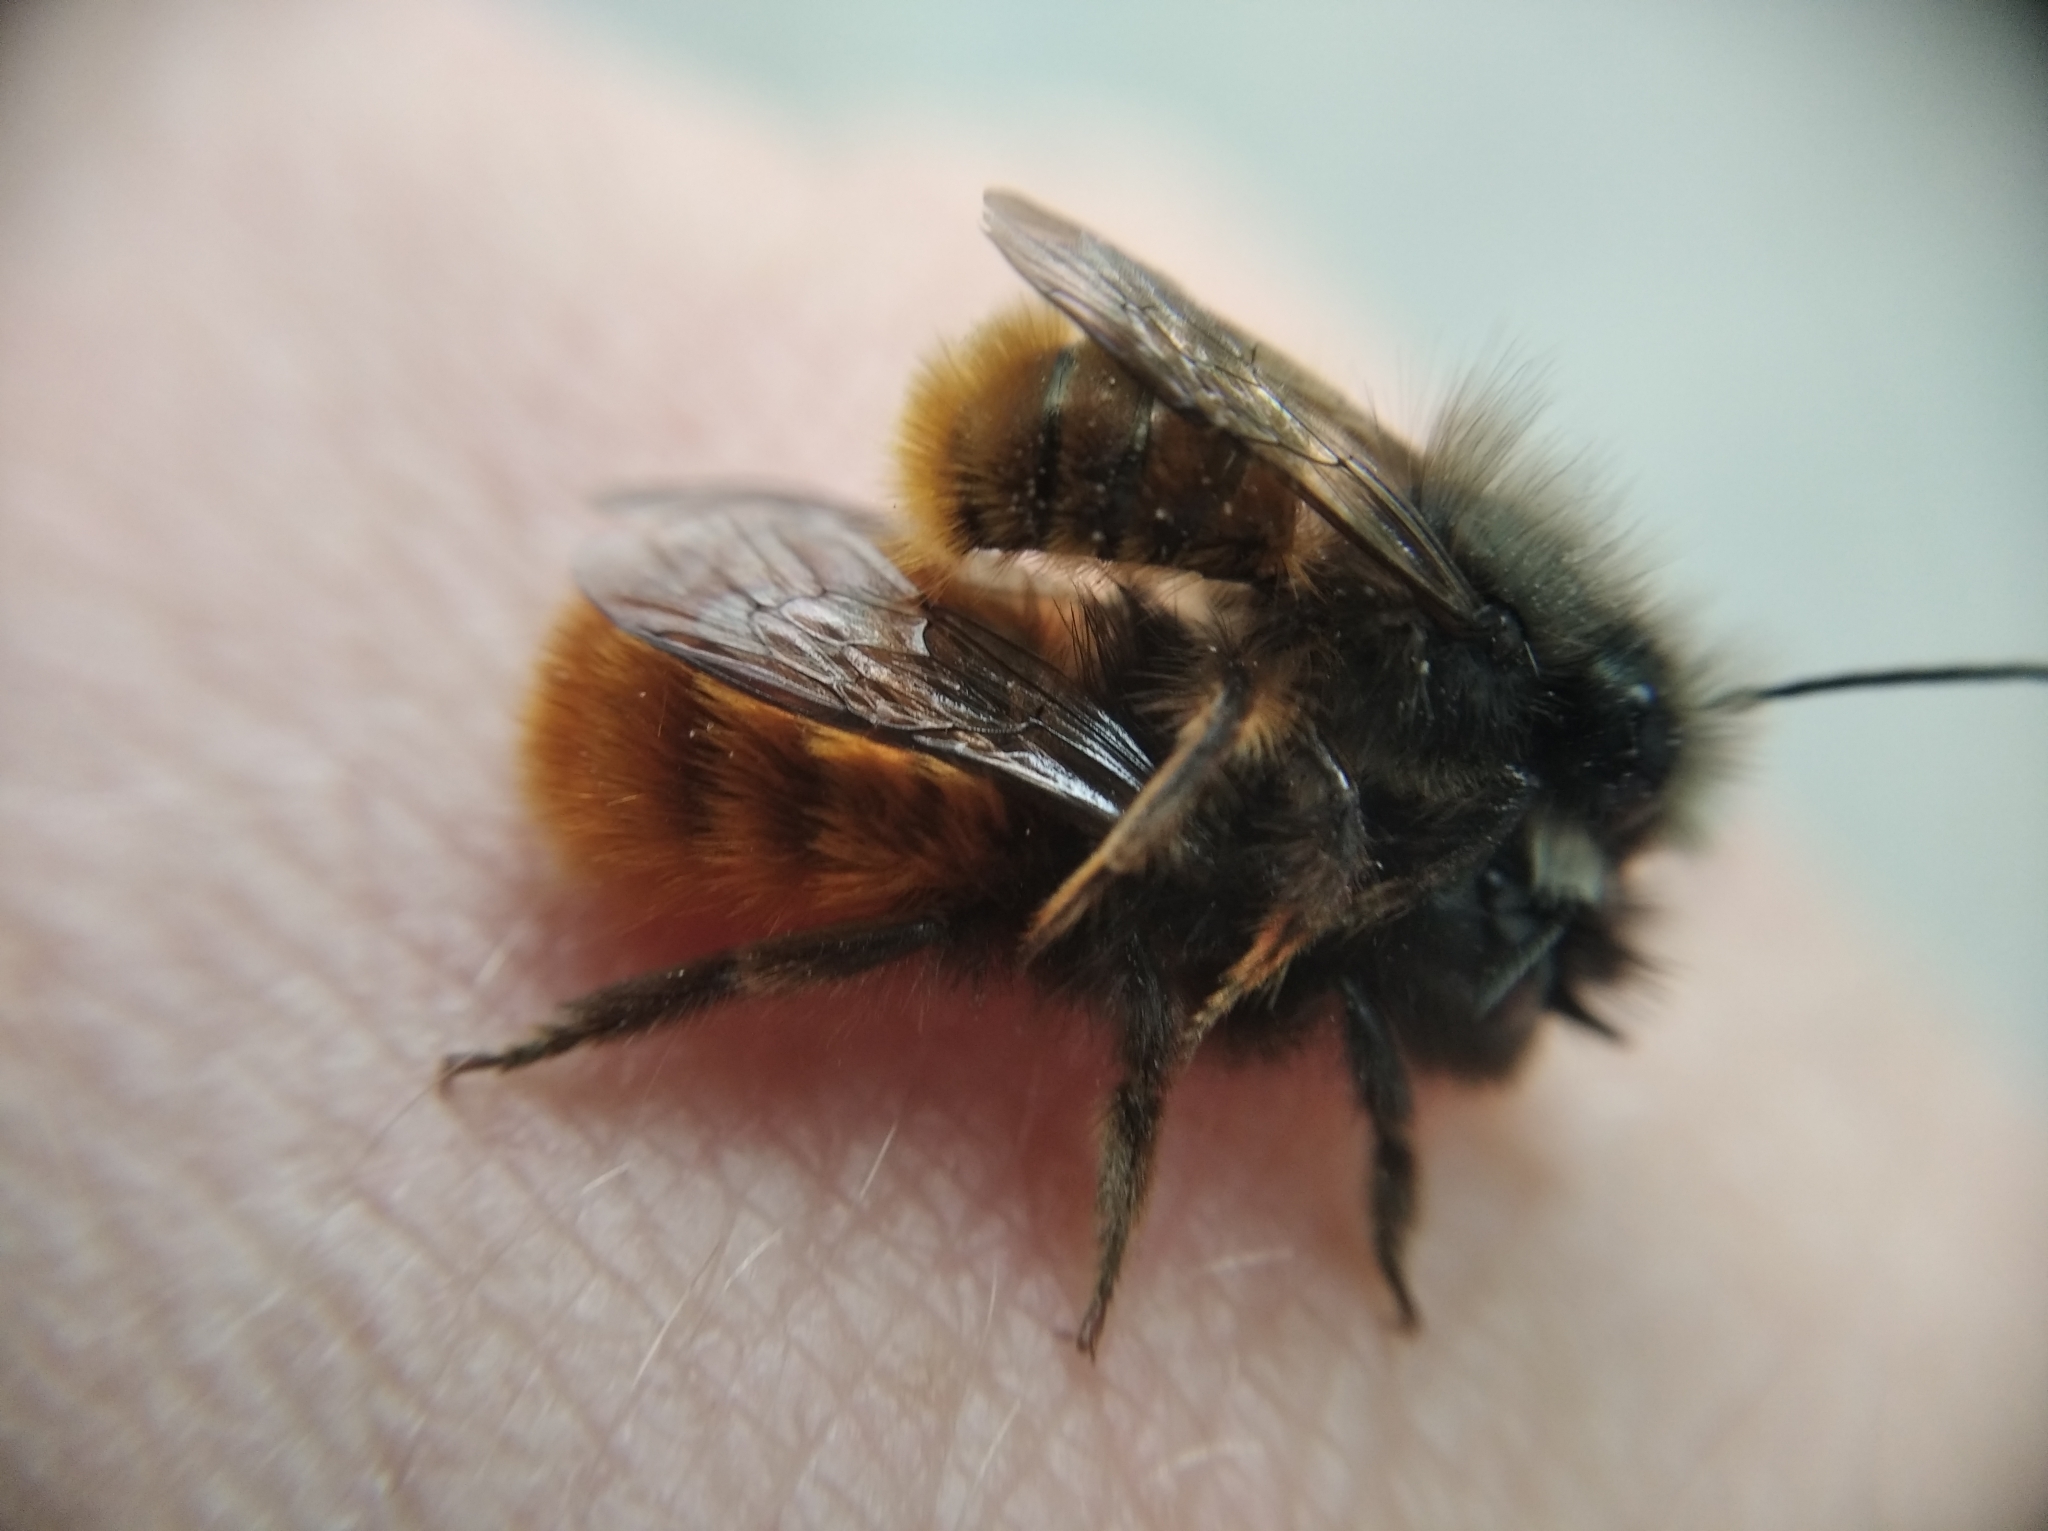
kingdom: Animalia
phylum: Arthropoda
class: Insecta
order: Hymenoptera
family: Megachilidae
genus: Osmia
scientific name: Osmia cornuta
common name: Mason bee
